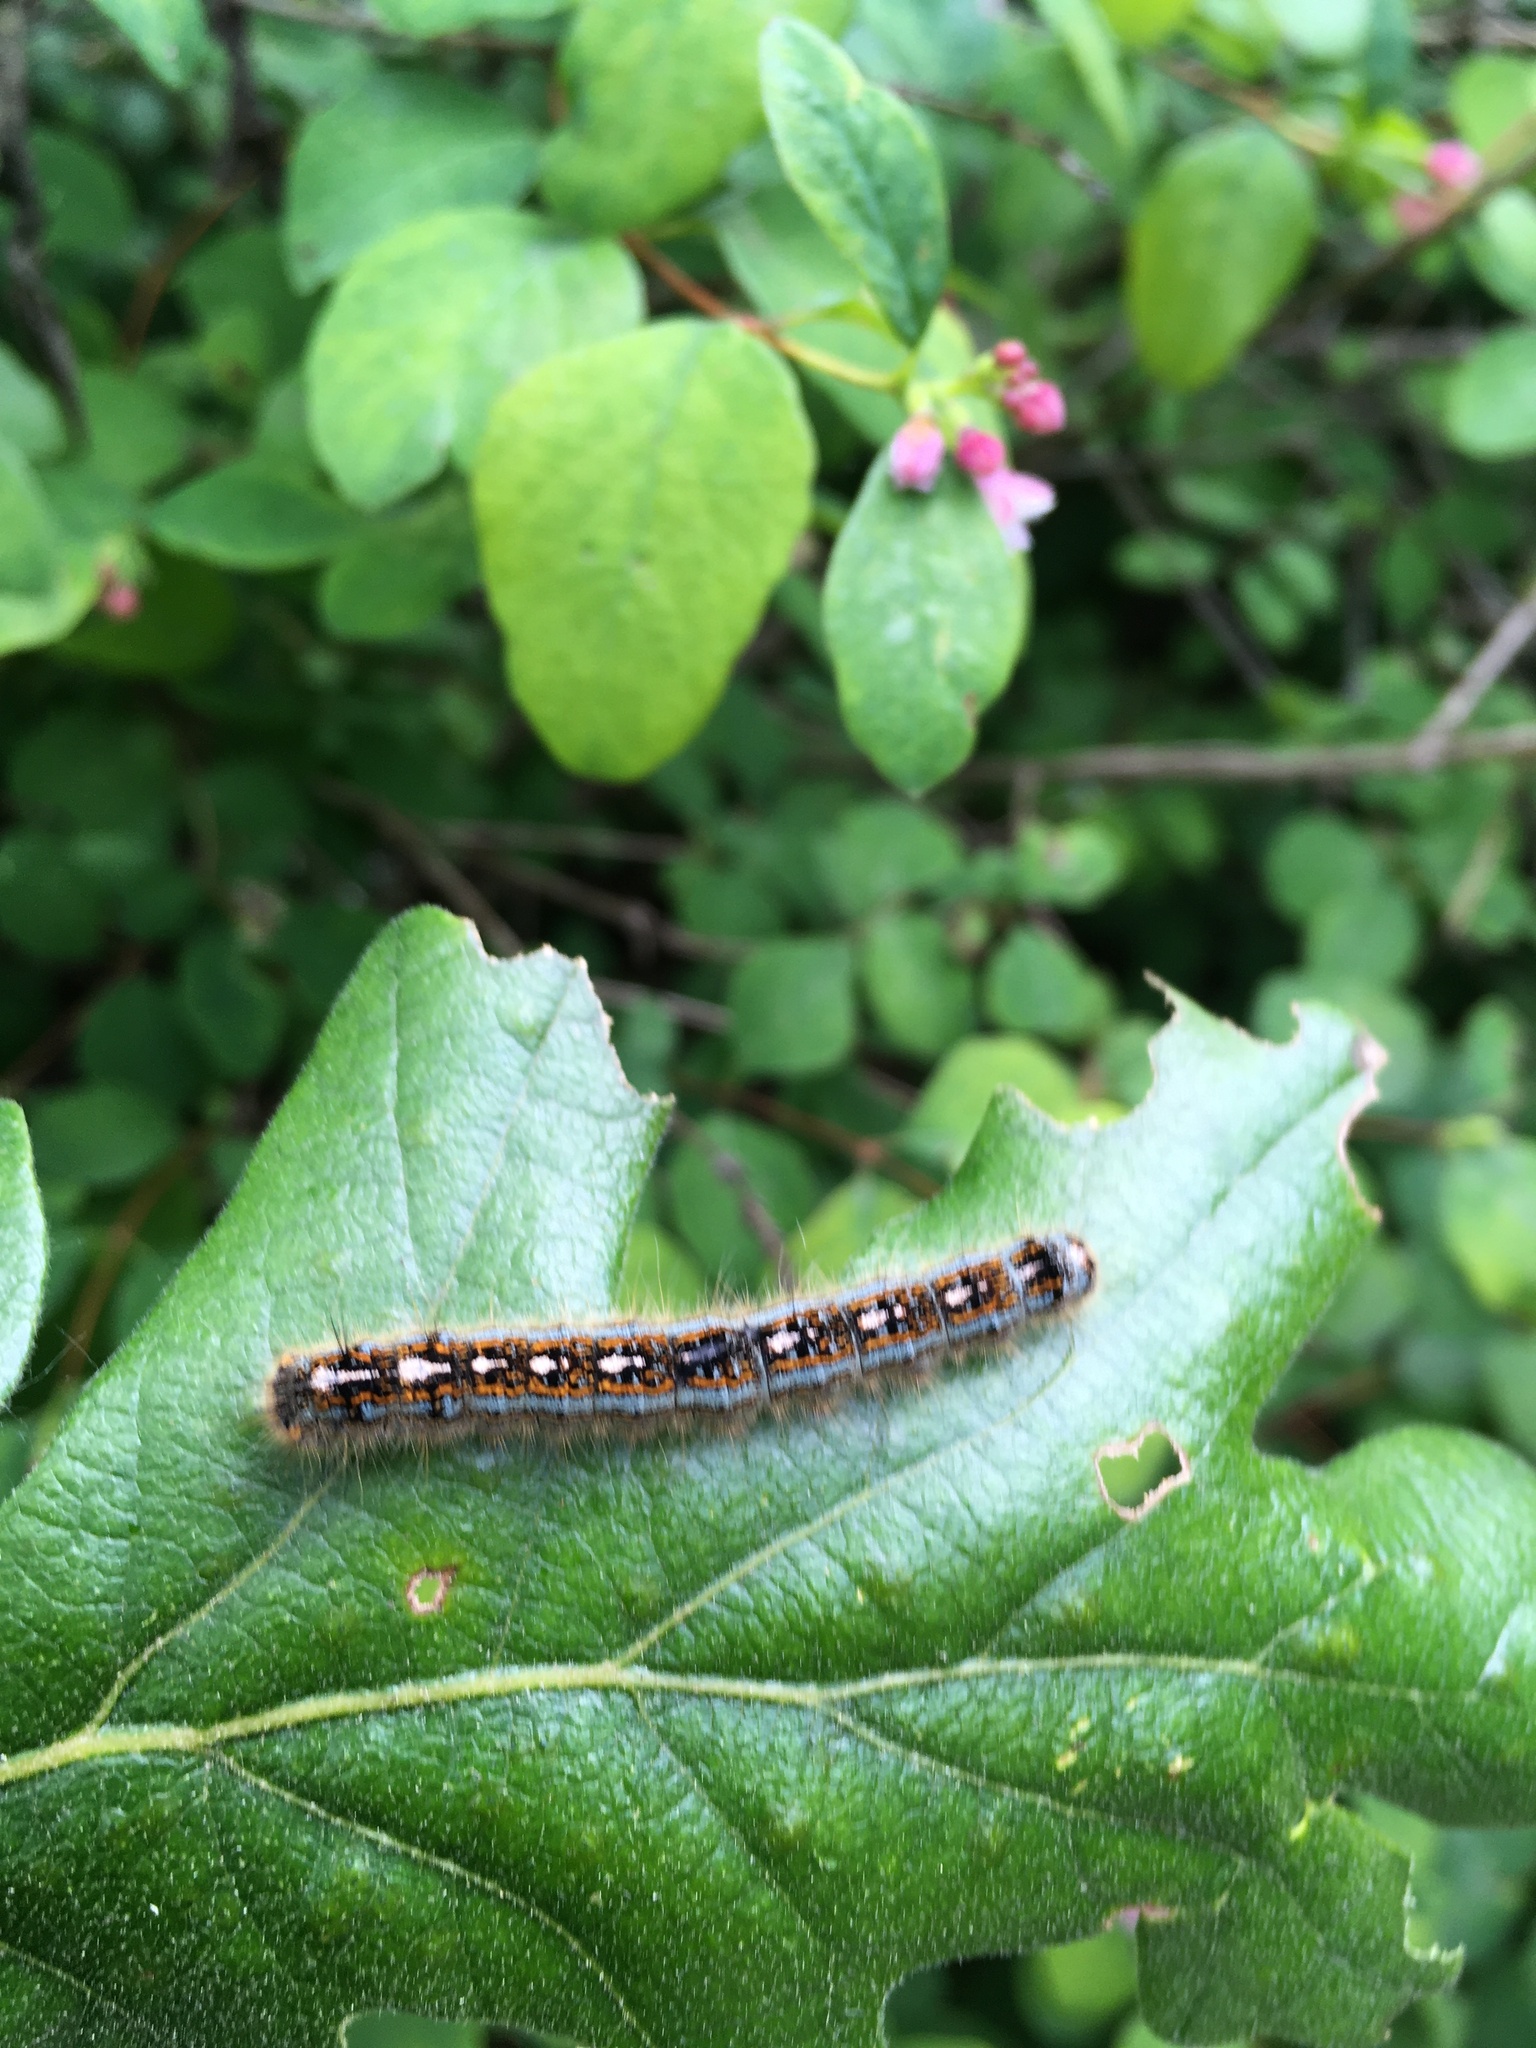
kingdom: Animalia
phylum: Arthropoda
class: Insecta
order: Lepidoptera
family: Lasiocampidae
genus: Malacosoma
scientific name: Malacosoma disstria
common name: Forest tent caterpillar
